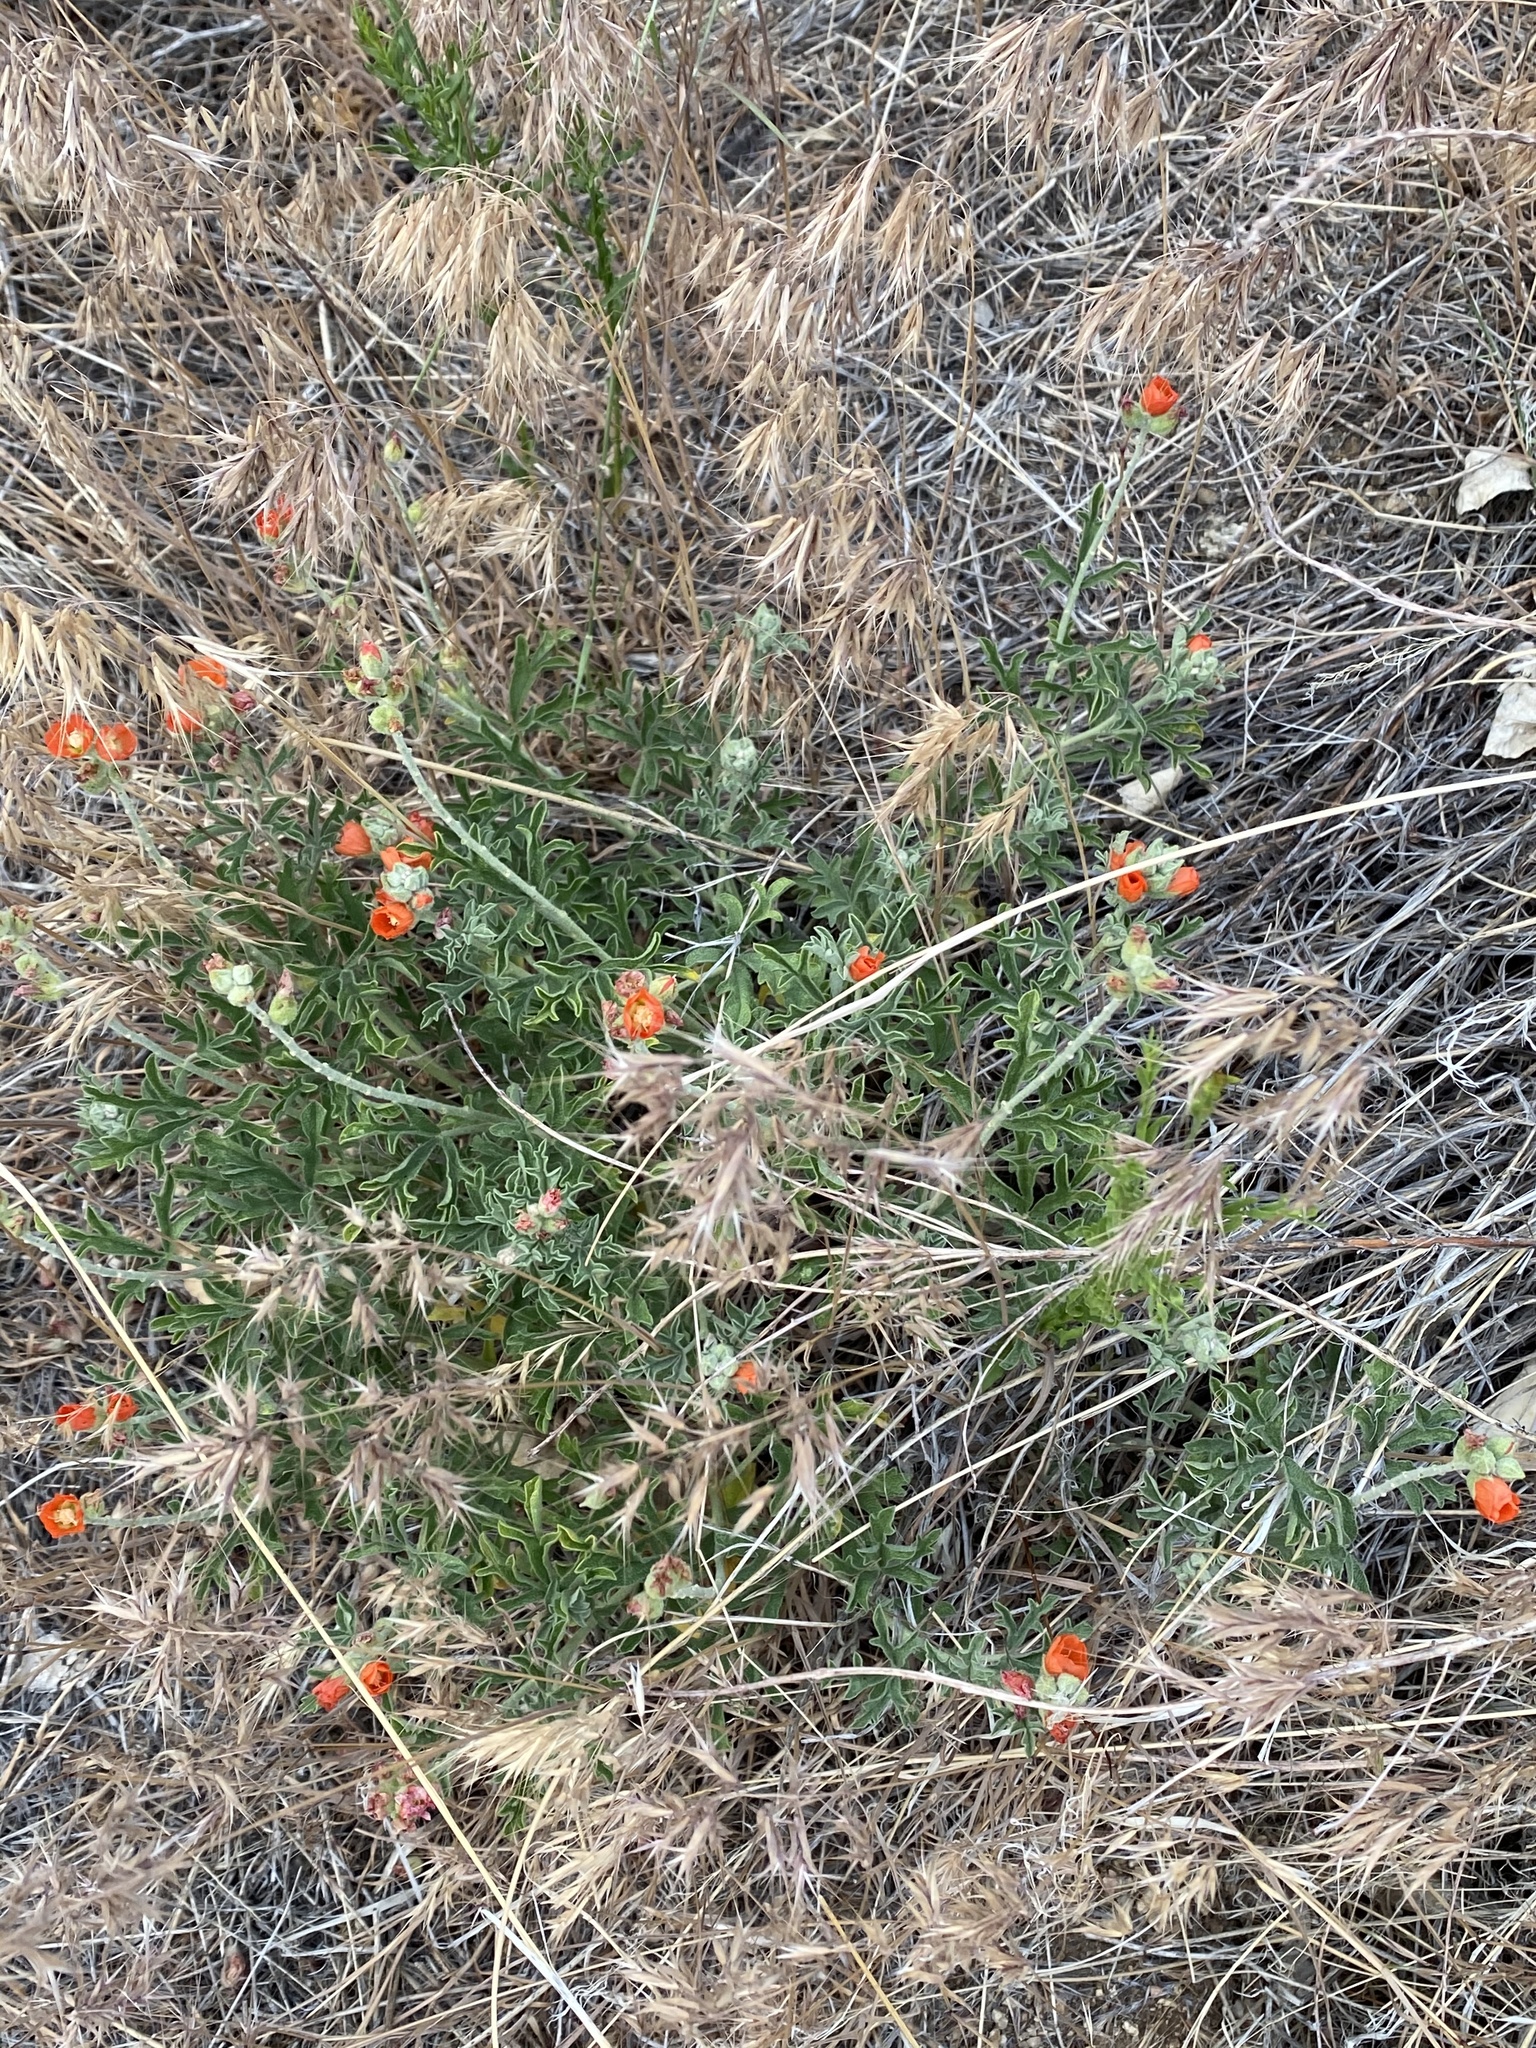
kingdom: Plantae
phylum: Tracheophyta
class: Magnoliopsida
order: Malvales
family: Malvaceae
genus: Sphaeralcea
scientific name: Sphaeralcea coccinea
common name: Moss-rose
